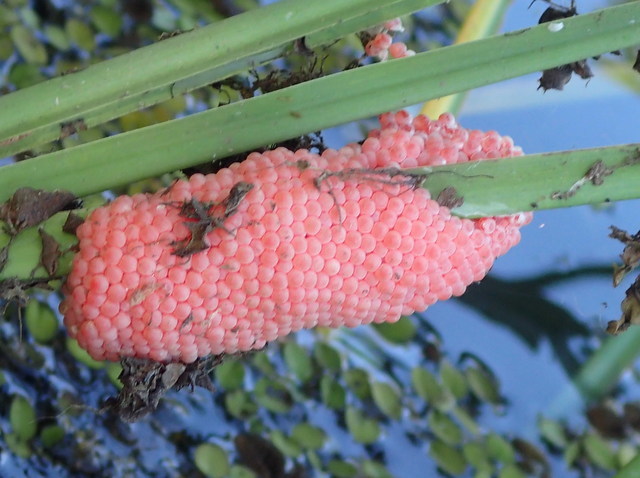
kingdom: Animalia
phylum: Mollusca
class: Gastropoda
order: Architaenioglossa
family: Ampullariidae
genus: Pomacea
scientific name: Pomacea maculata
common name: Giant applesnail
